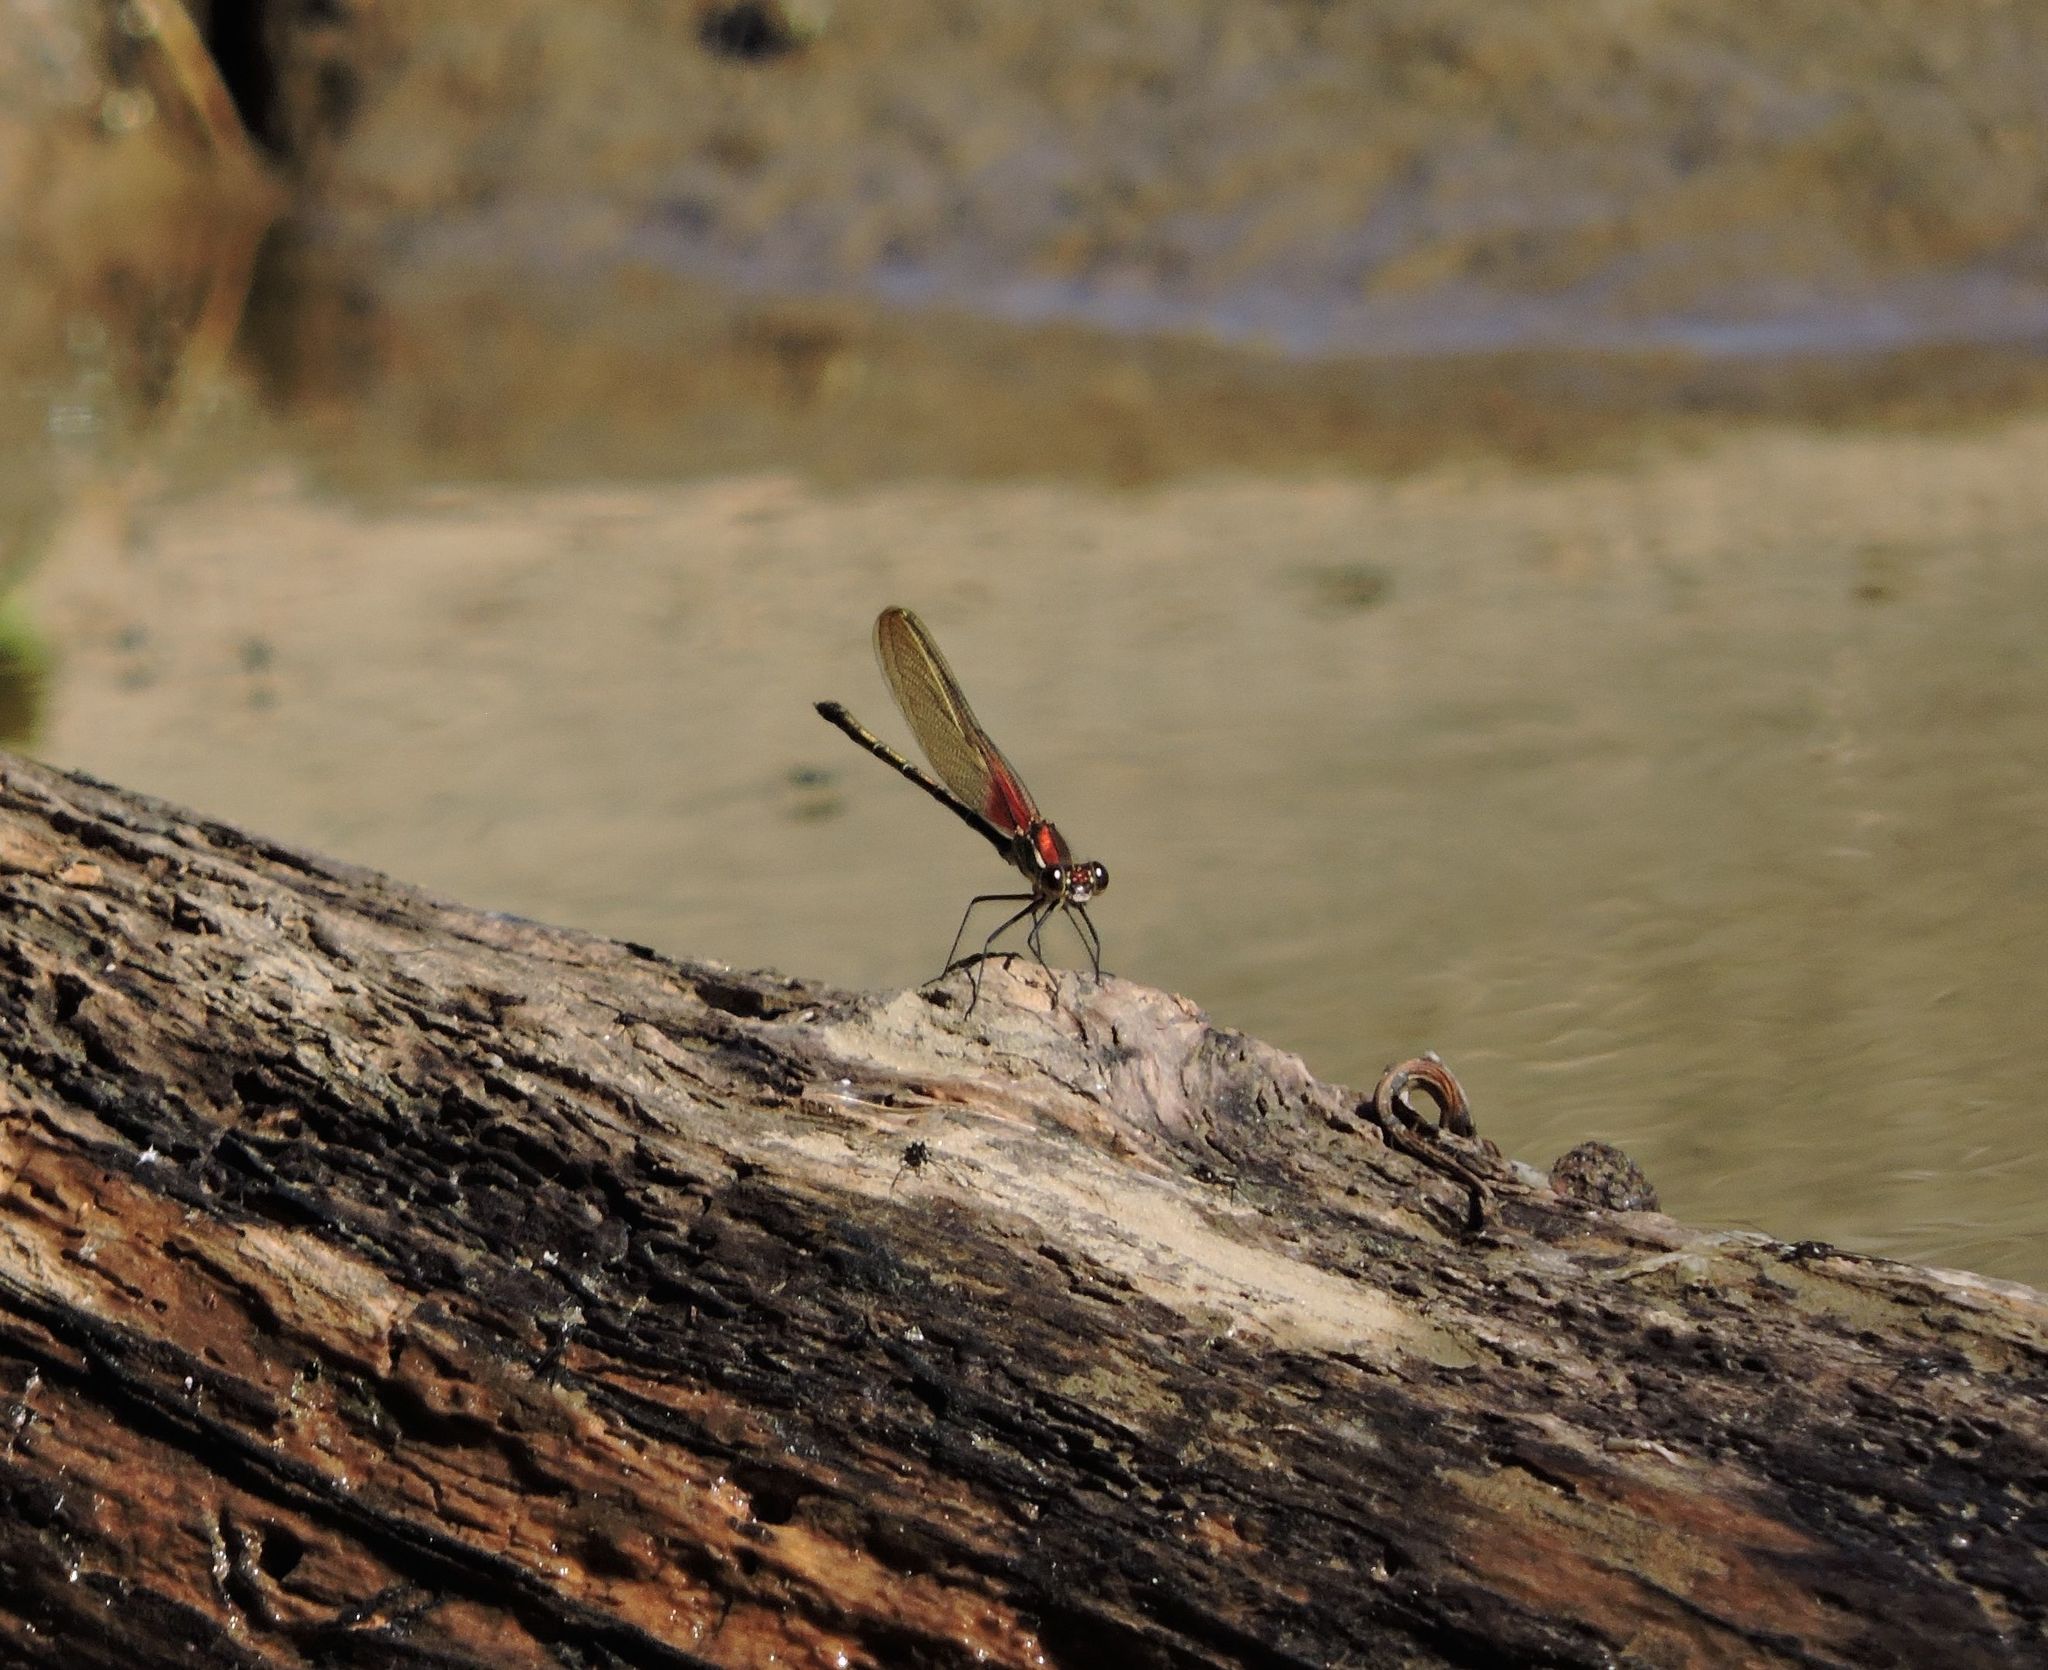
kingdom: Animalia
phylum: Arthropoda
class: Insecta
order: Odonata
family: Calopterygidae
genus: Hetaerina
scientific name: Hetaerina americana
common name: American rubyspot
